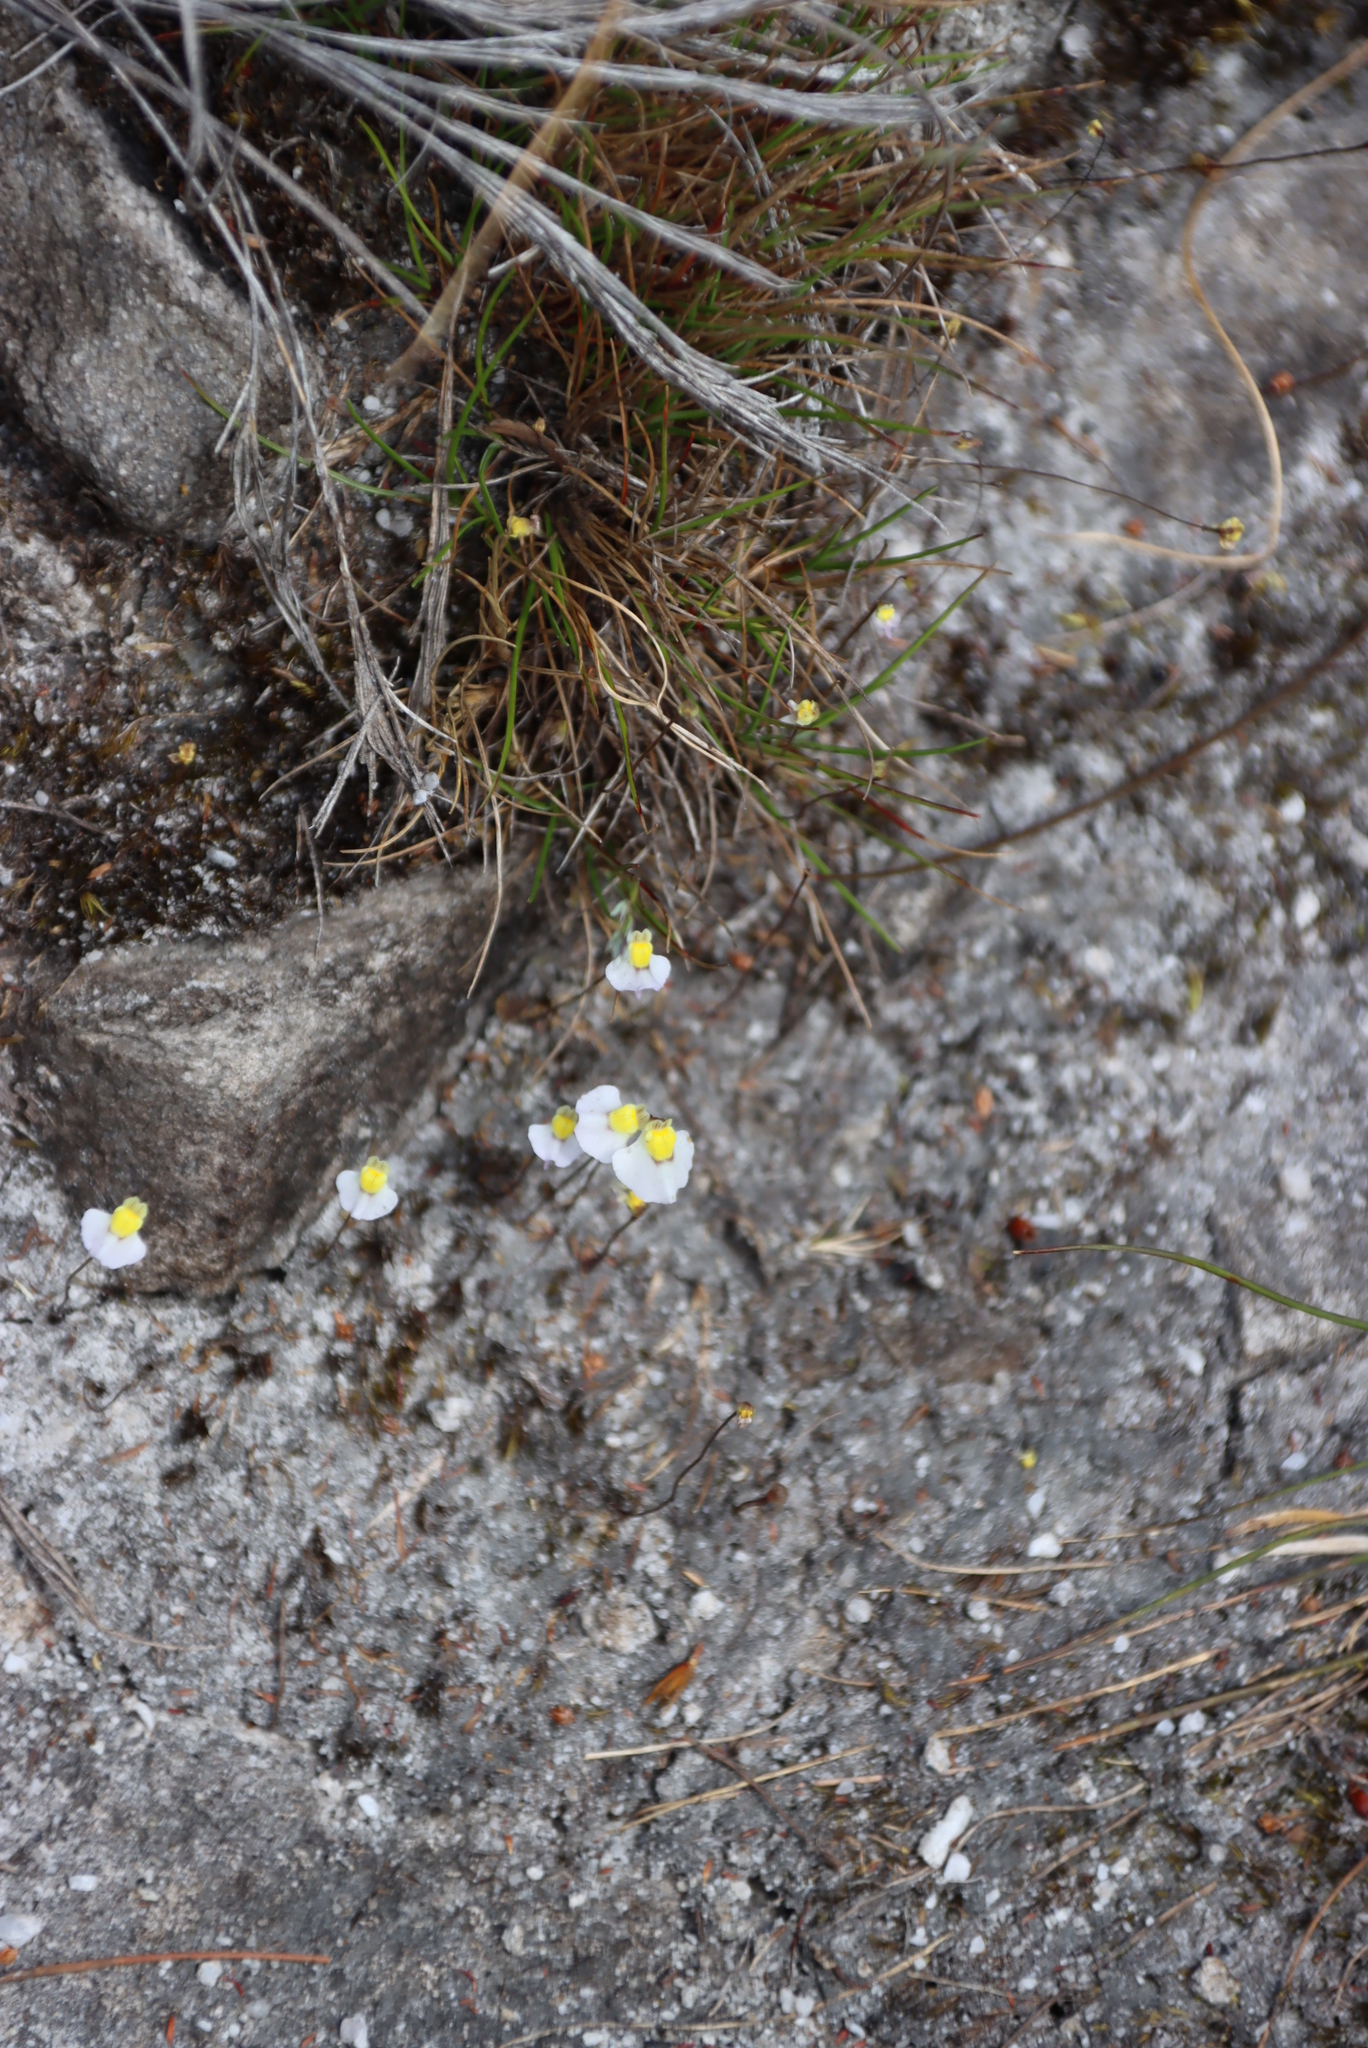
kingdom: Plantae
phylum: Tracheophyta
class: Magnoliopsida
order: Lamiales
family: Lentibulariaceae
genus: Utricularia
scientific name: Utricularia bisquamata
